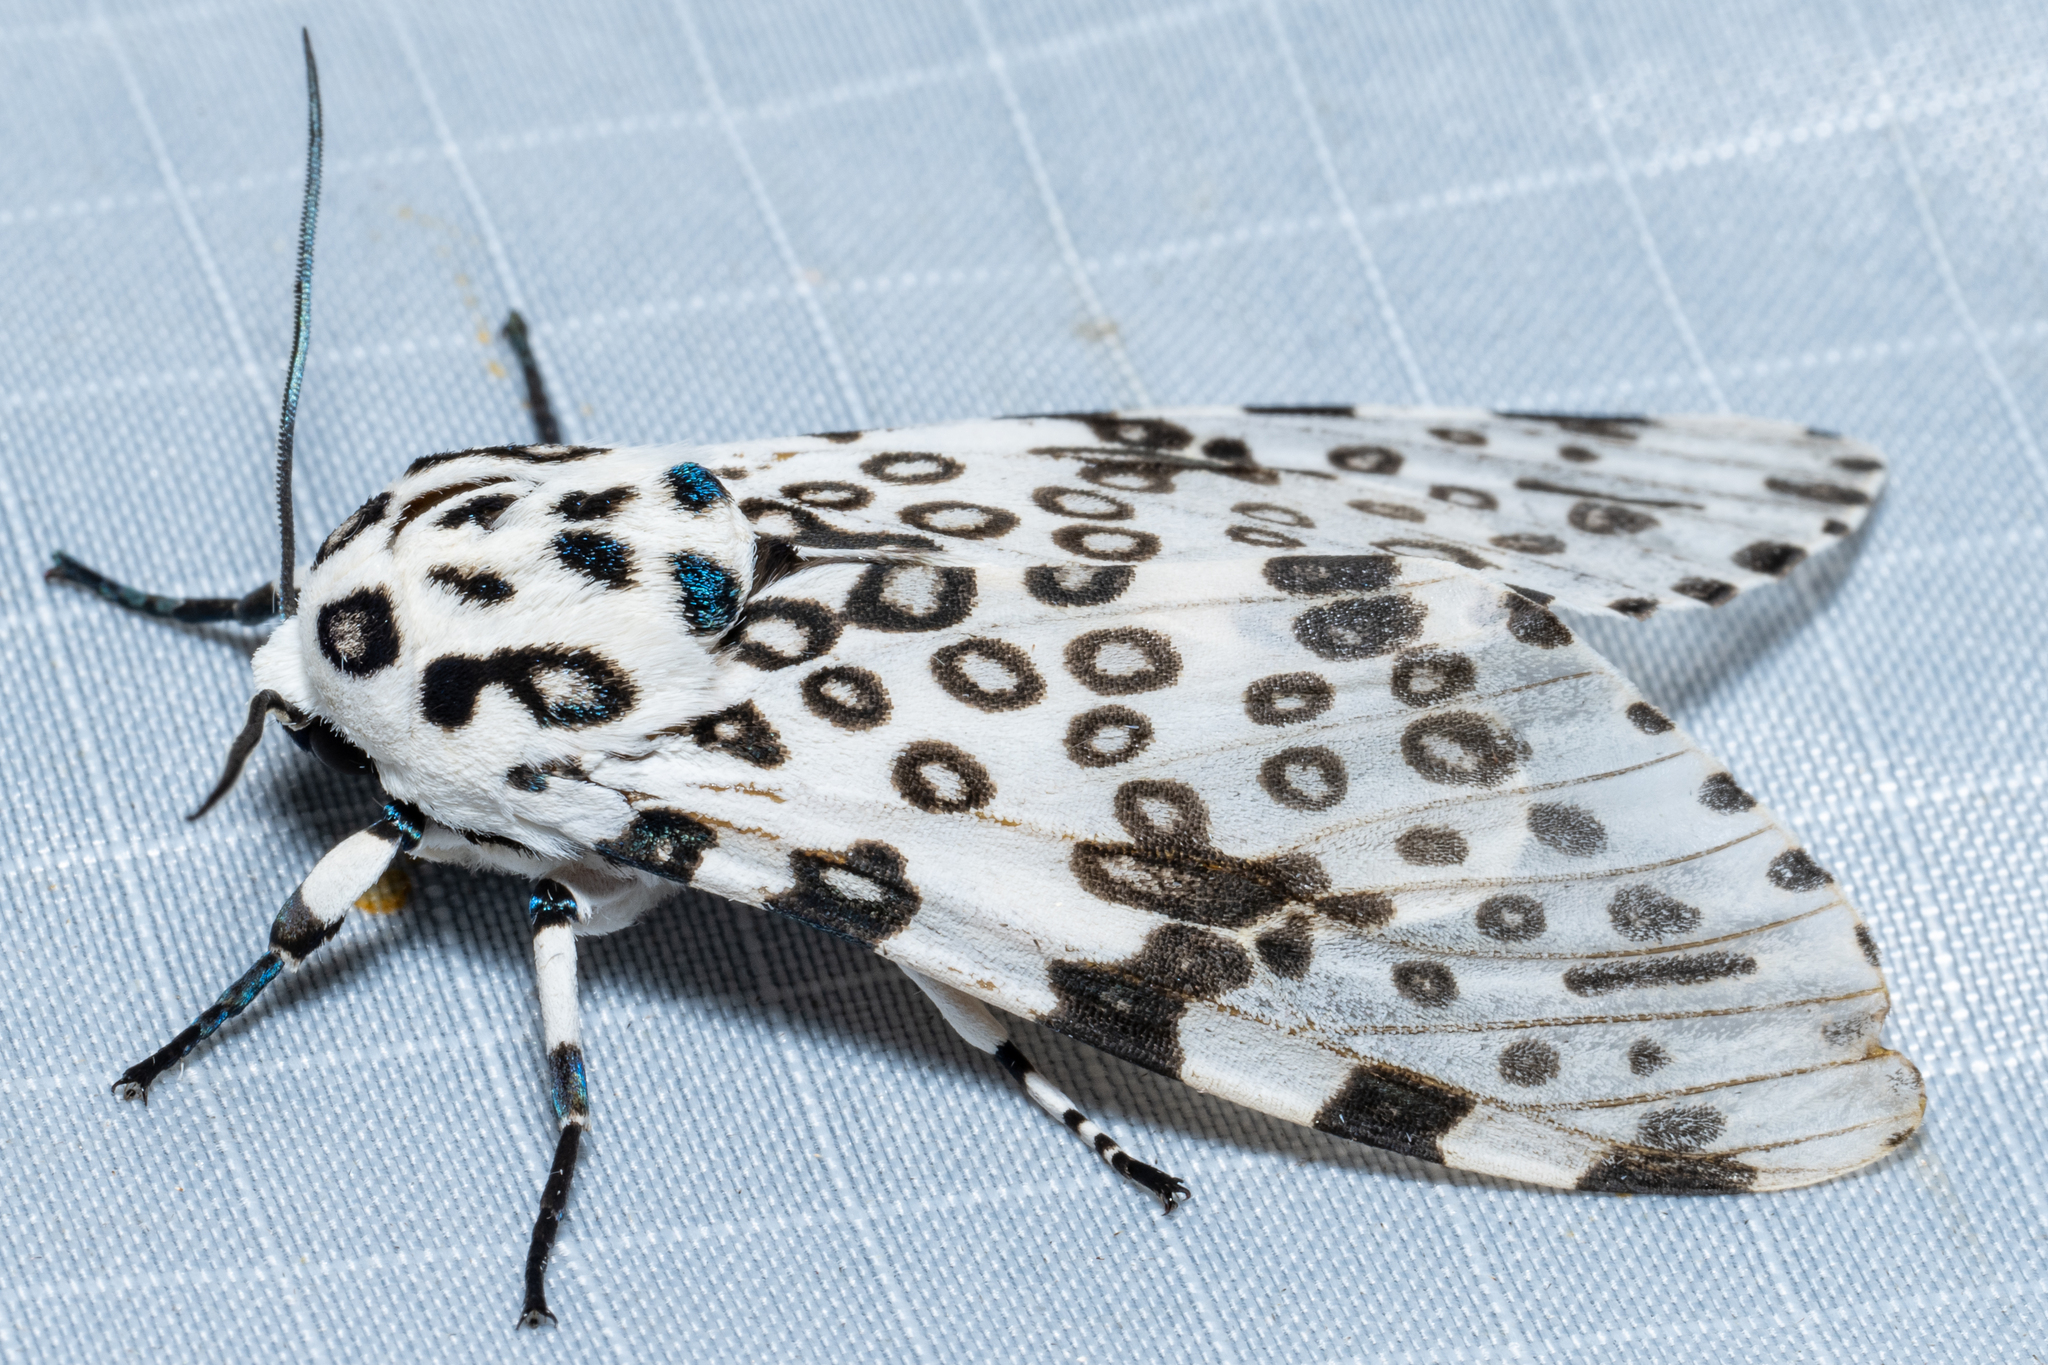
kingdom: Animalia
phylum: Arthropoda
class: Insecta
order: Lepidoptera
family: Erebidae
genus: Hypercompe
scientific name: Hypercompe scribonia
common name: Giant leopard moth
